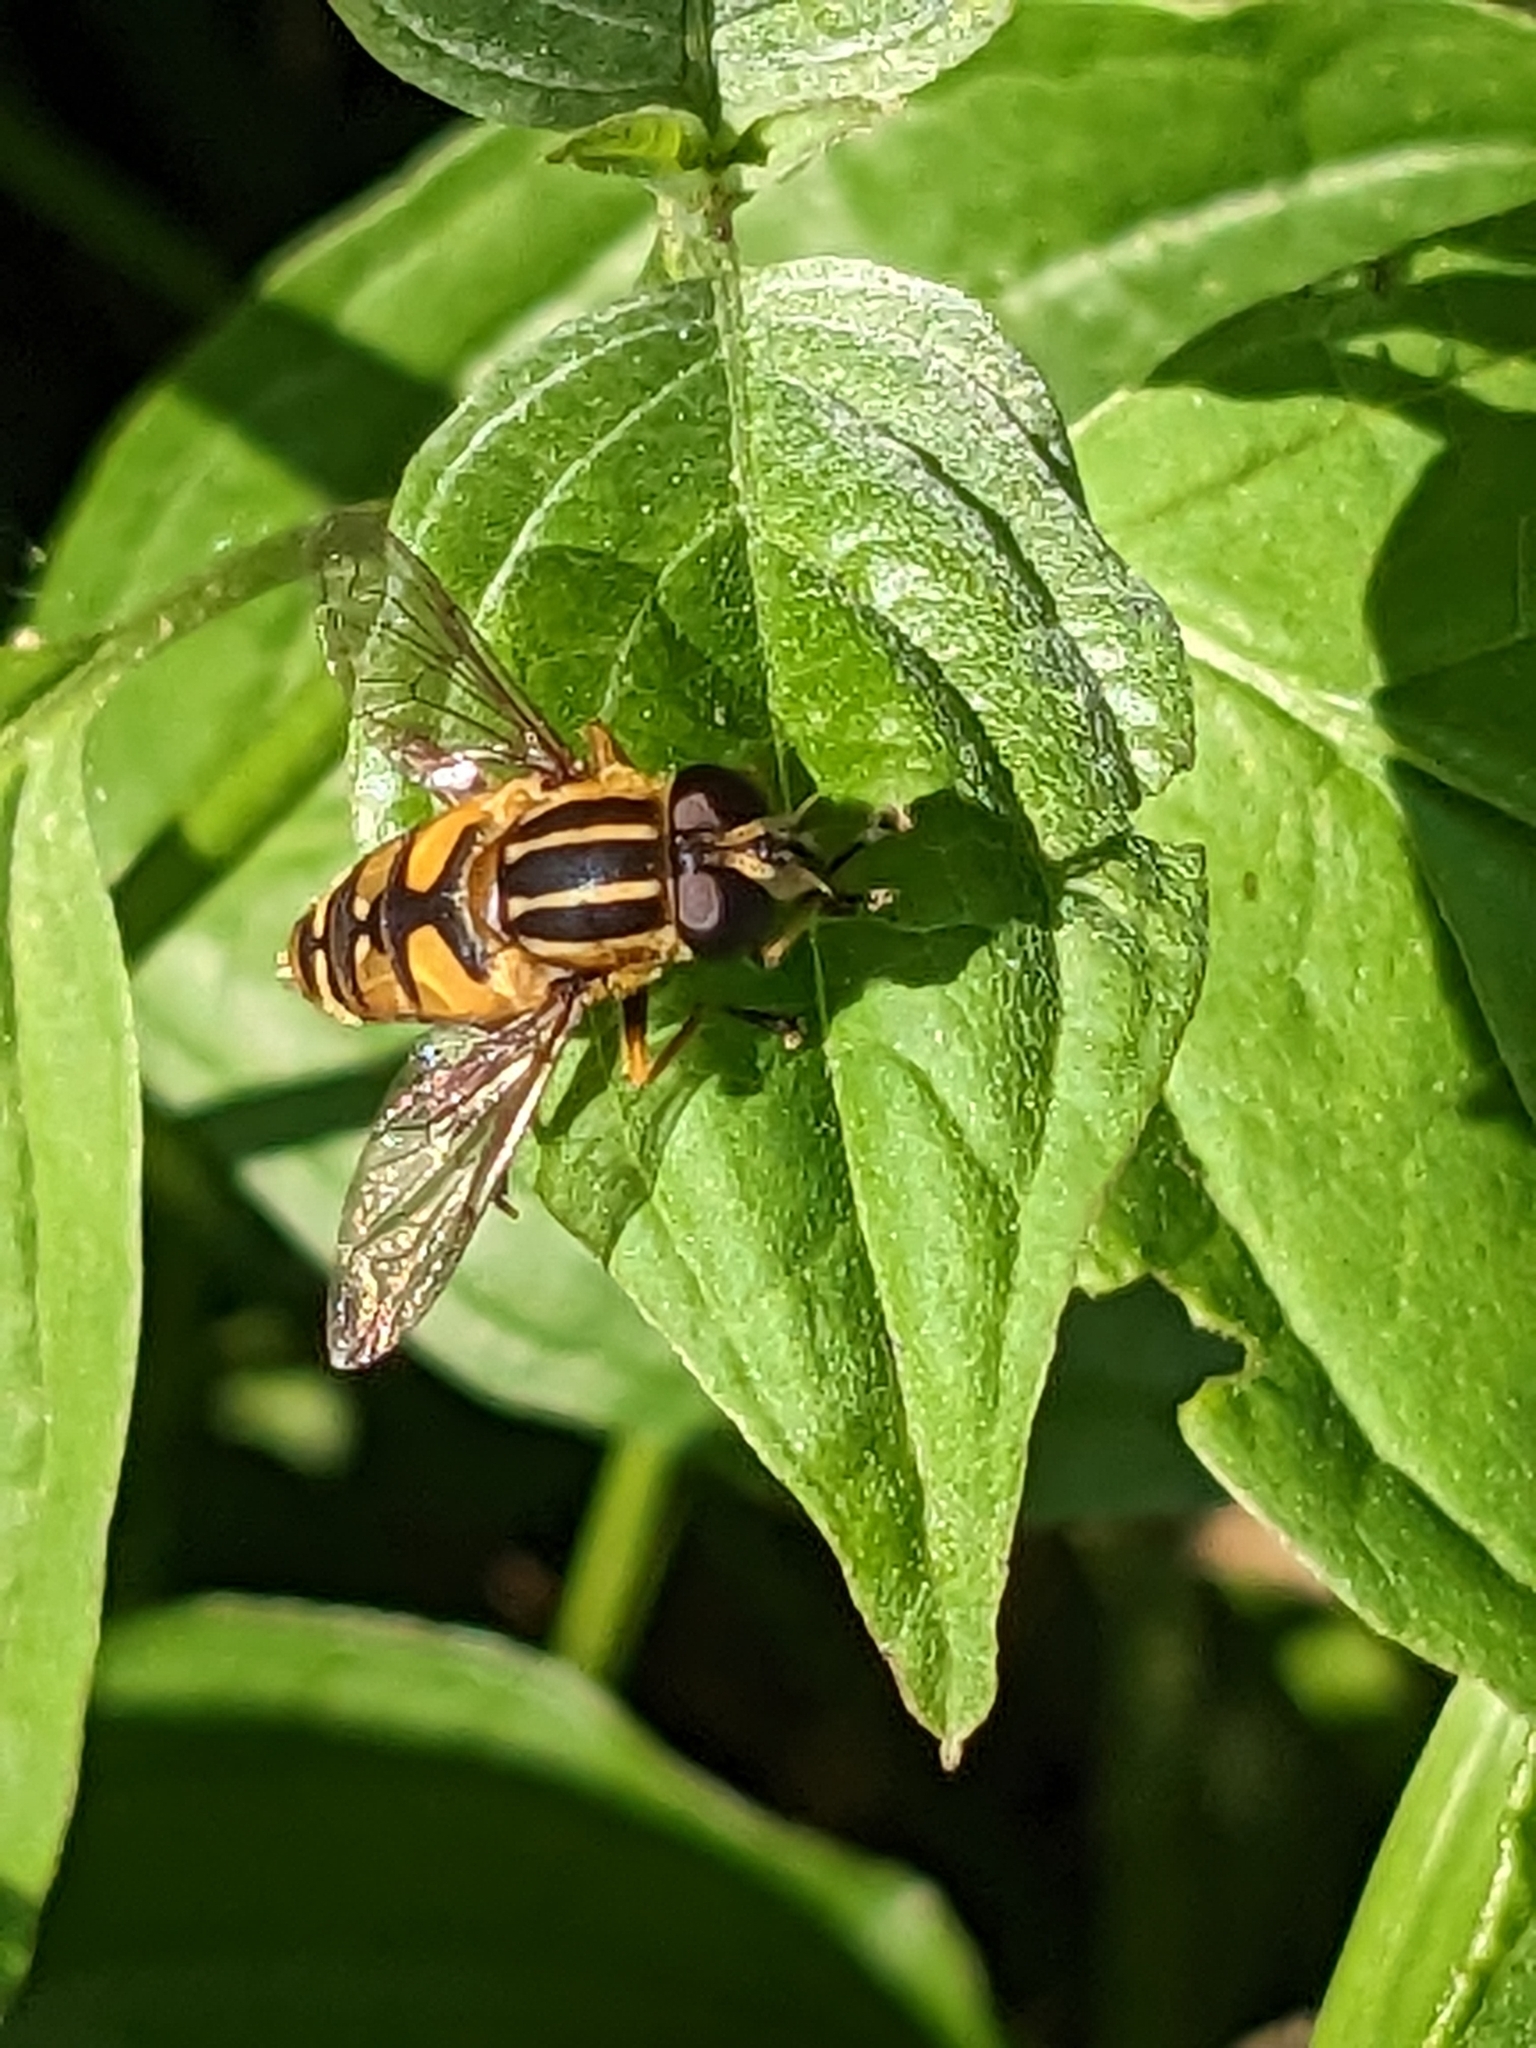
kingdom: Animalia
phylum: Arthropoda
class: Insecta
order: Diptera
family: Syrphidae
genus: Helophilus
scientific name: Helophilus pendulus
